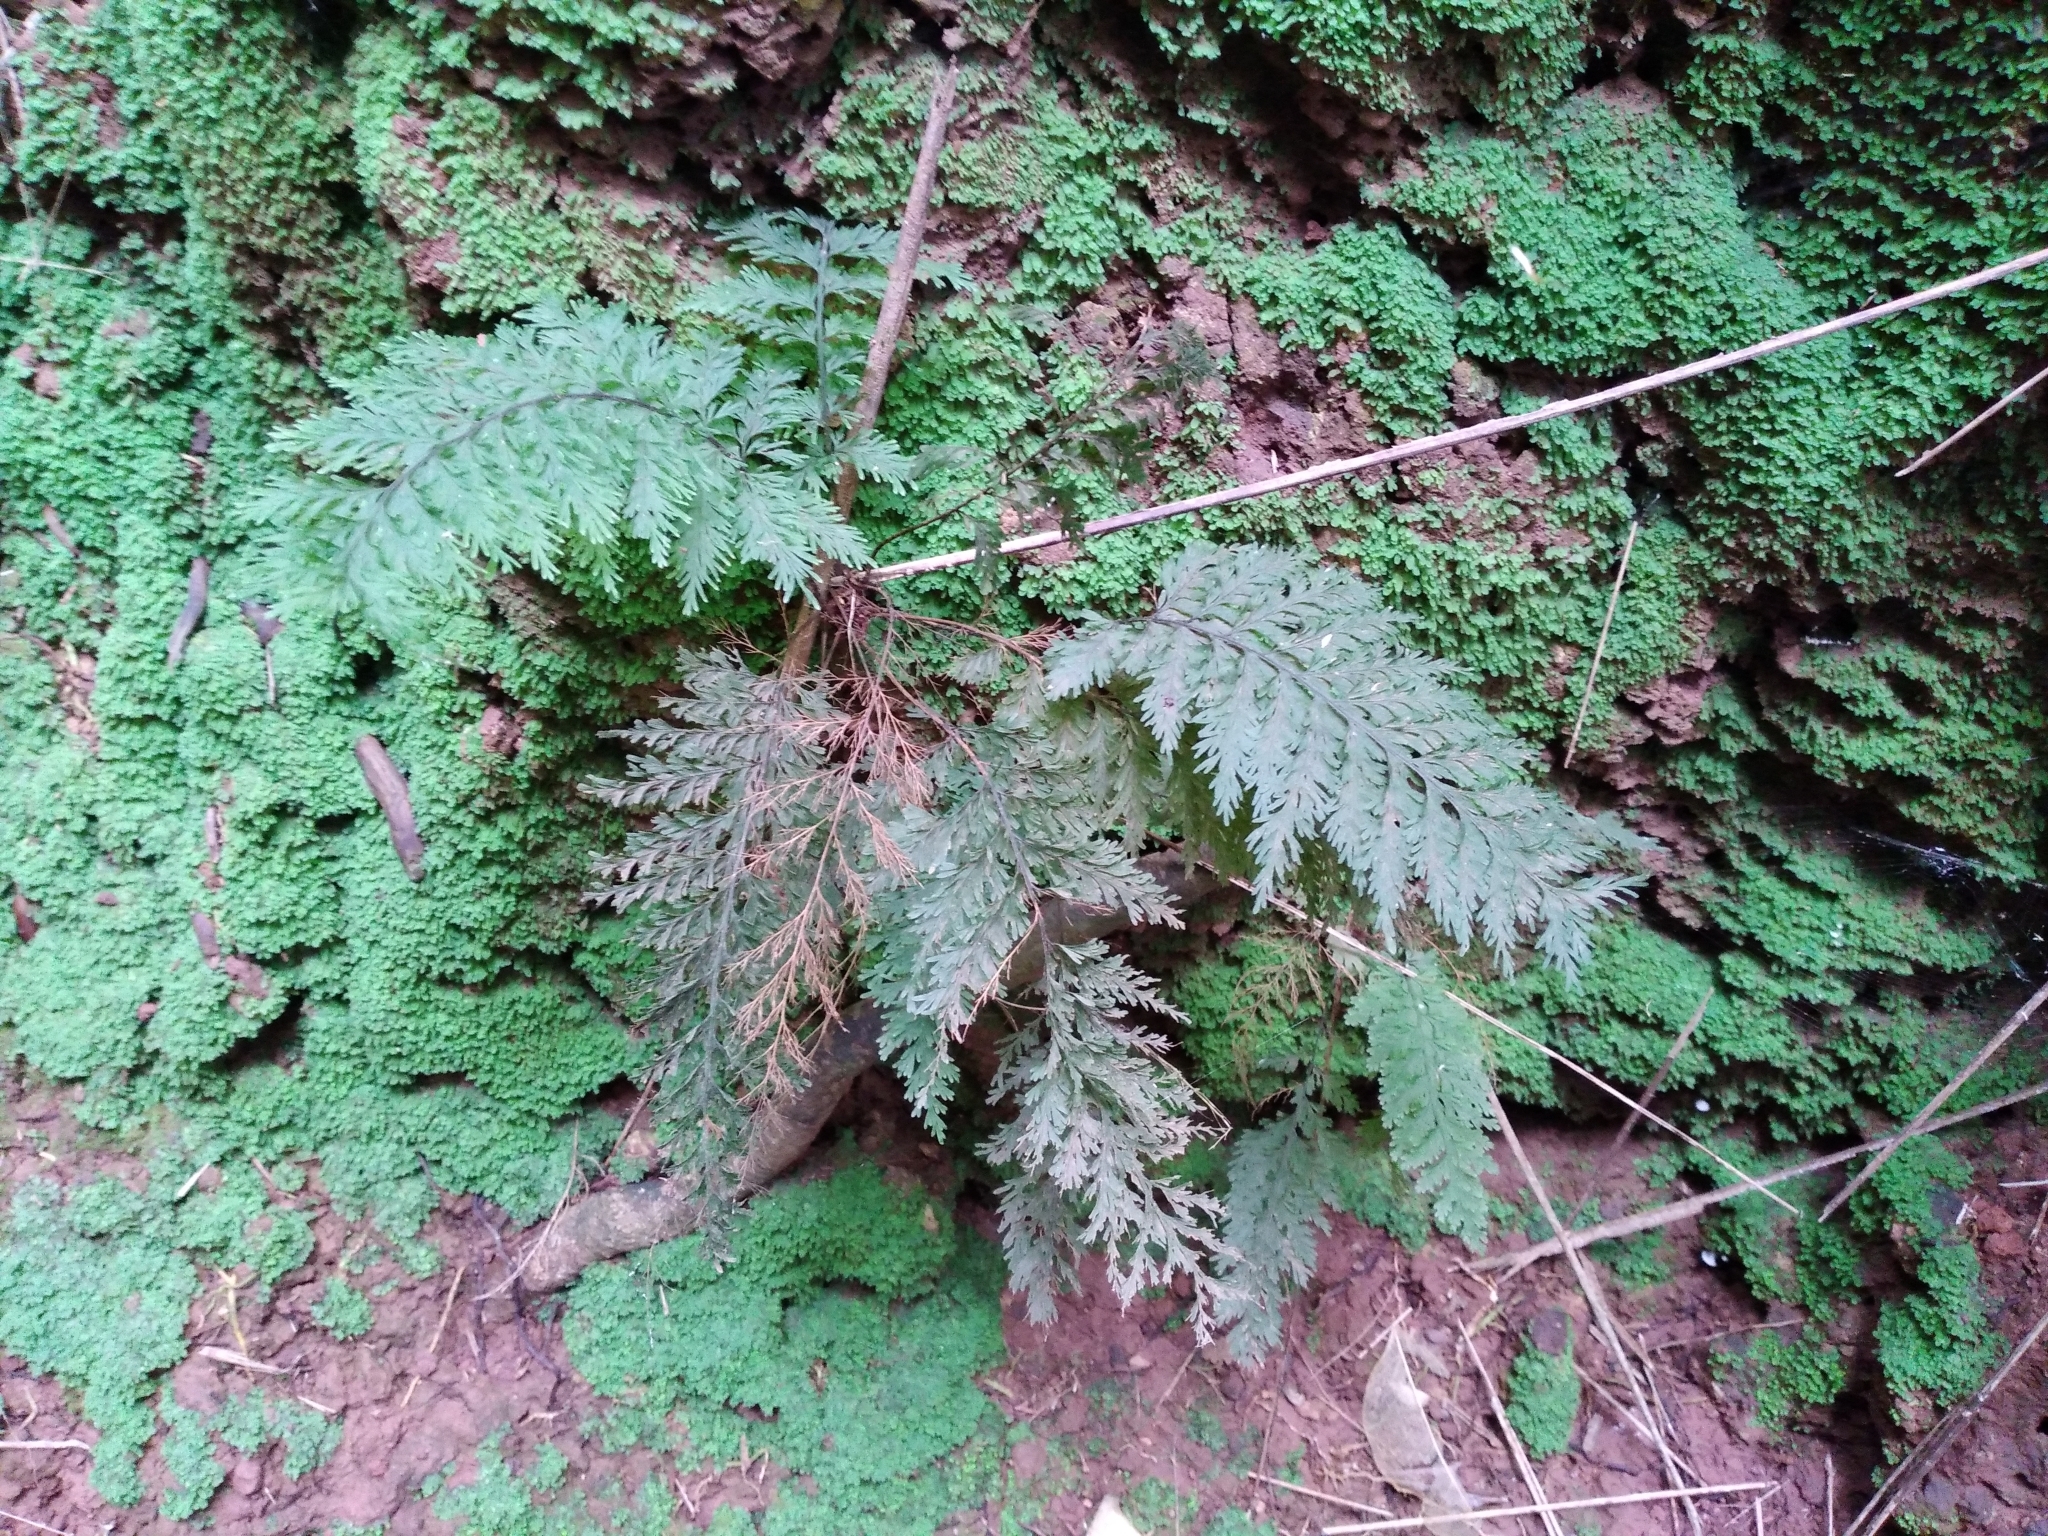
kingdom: Plantae
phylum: Tracheophyta
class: Polypodiopsida
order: Hymenophyllales
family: Hymenophyllaceae
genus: Callistopteris
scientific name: Callistopteris baueriana
